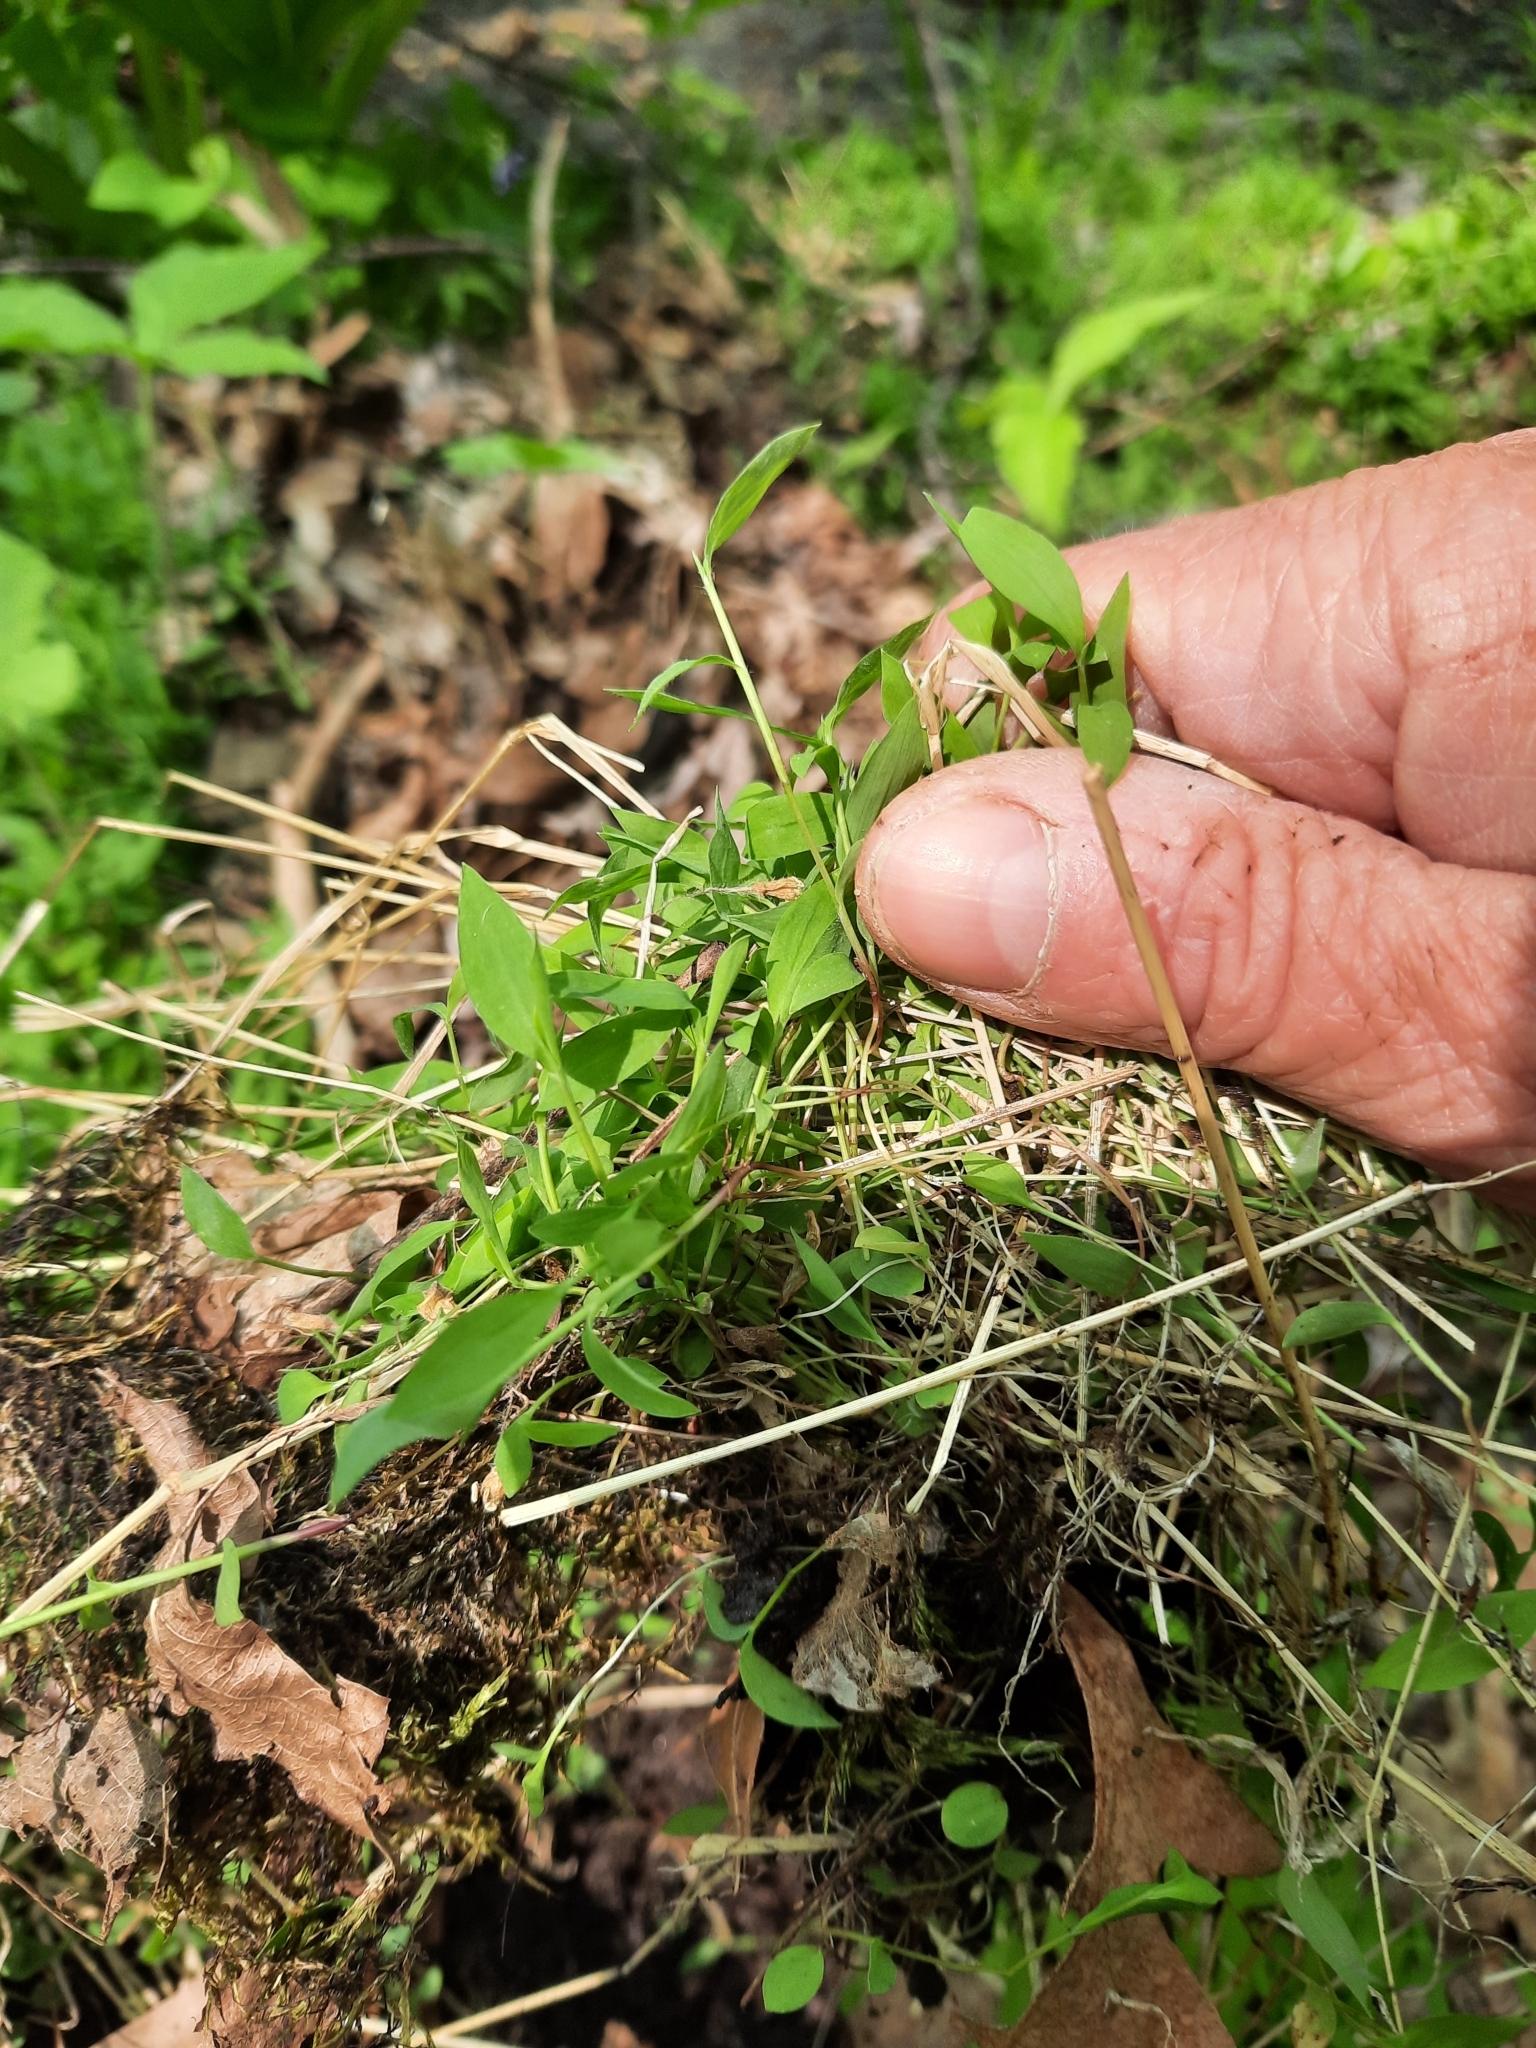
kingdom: Plantae
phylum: Tracheophyta
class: Liliopsida
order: Poales
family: Poaceae
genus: Microstegium
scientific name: Microstegium vimineum
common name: Japanese stiltgrass
